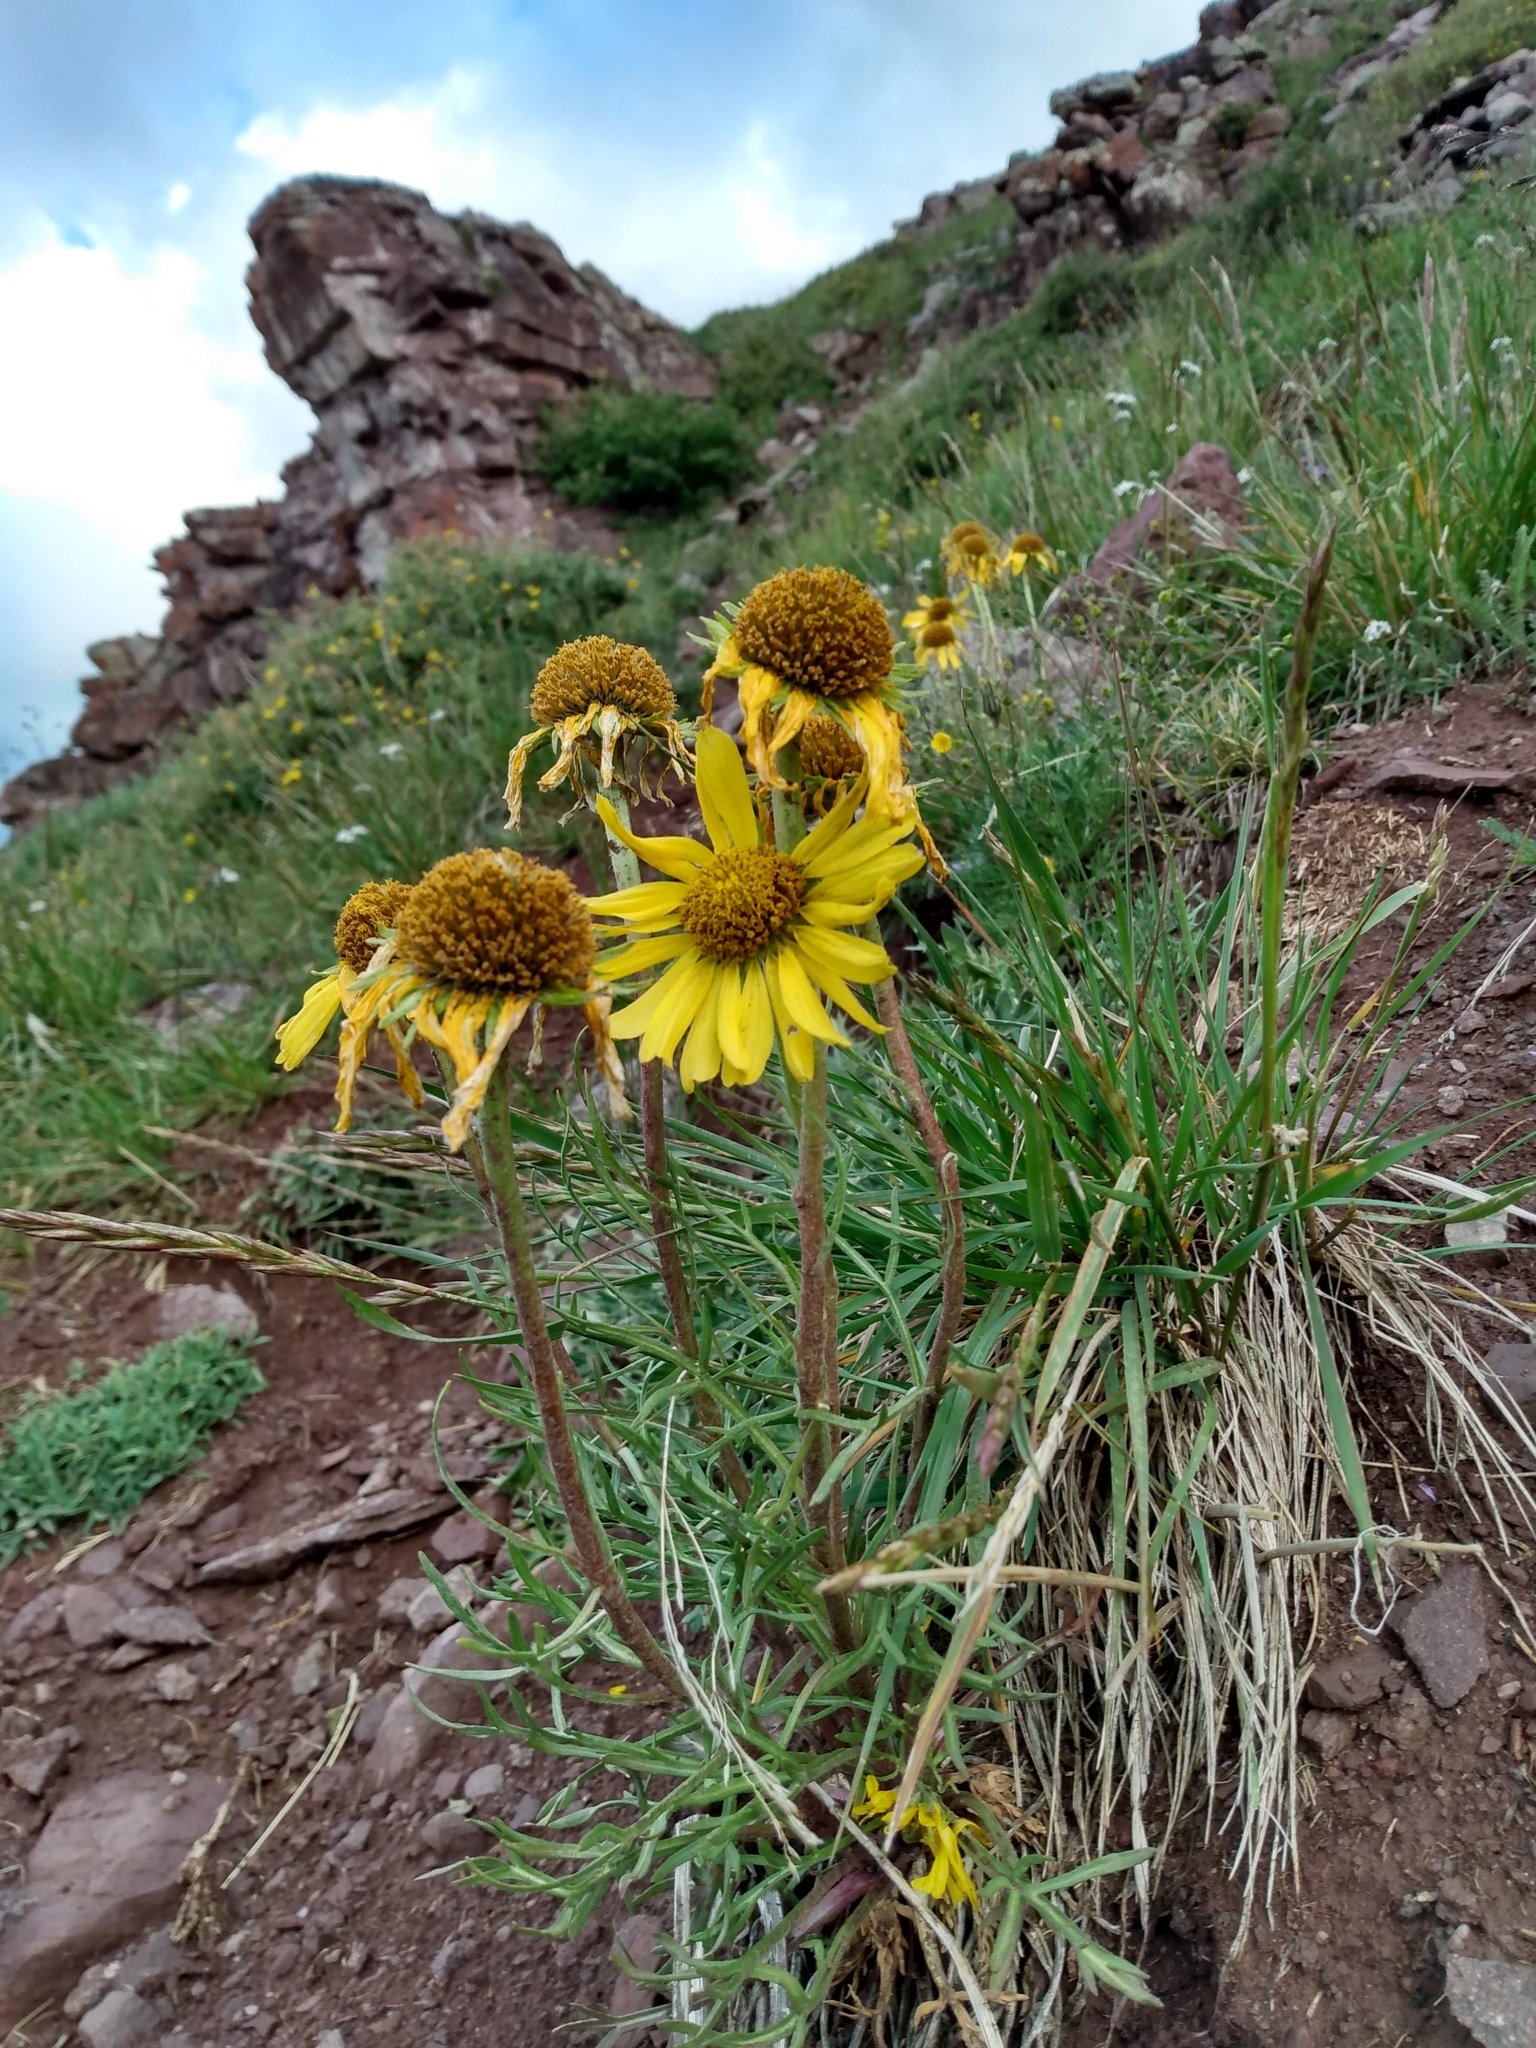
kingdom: Plantae
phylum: Tracheophyta
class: Magnoliopsida
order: Asterales
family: Asteraceae
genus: Hymenoxys
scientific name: Hymenoxys grandiflora
